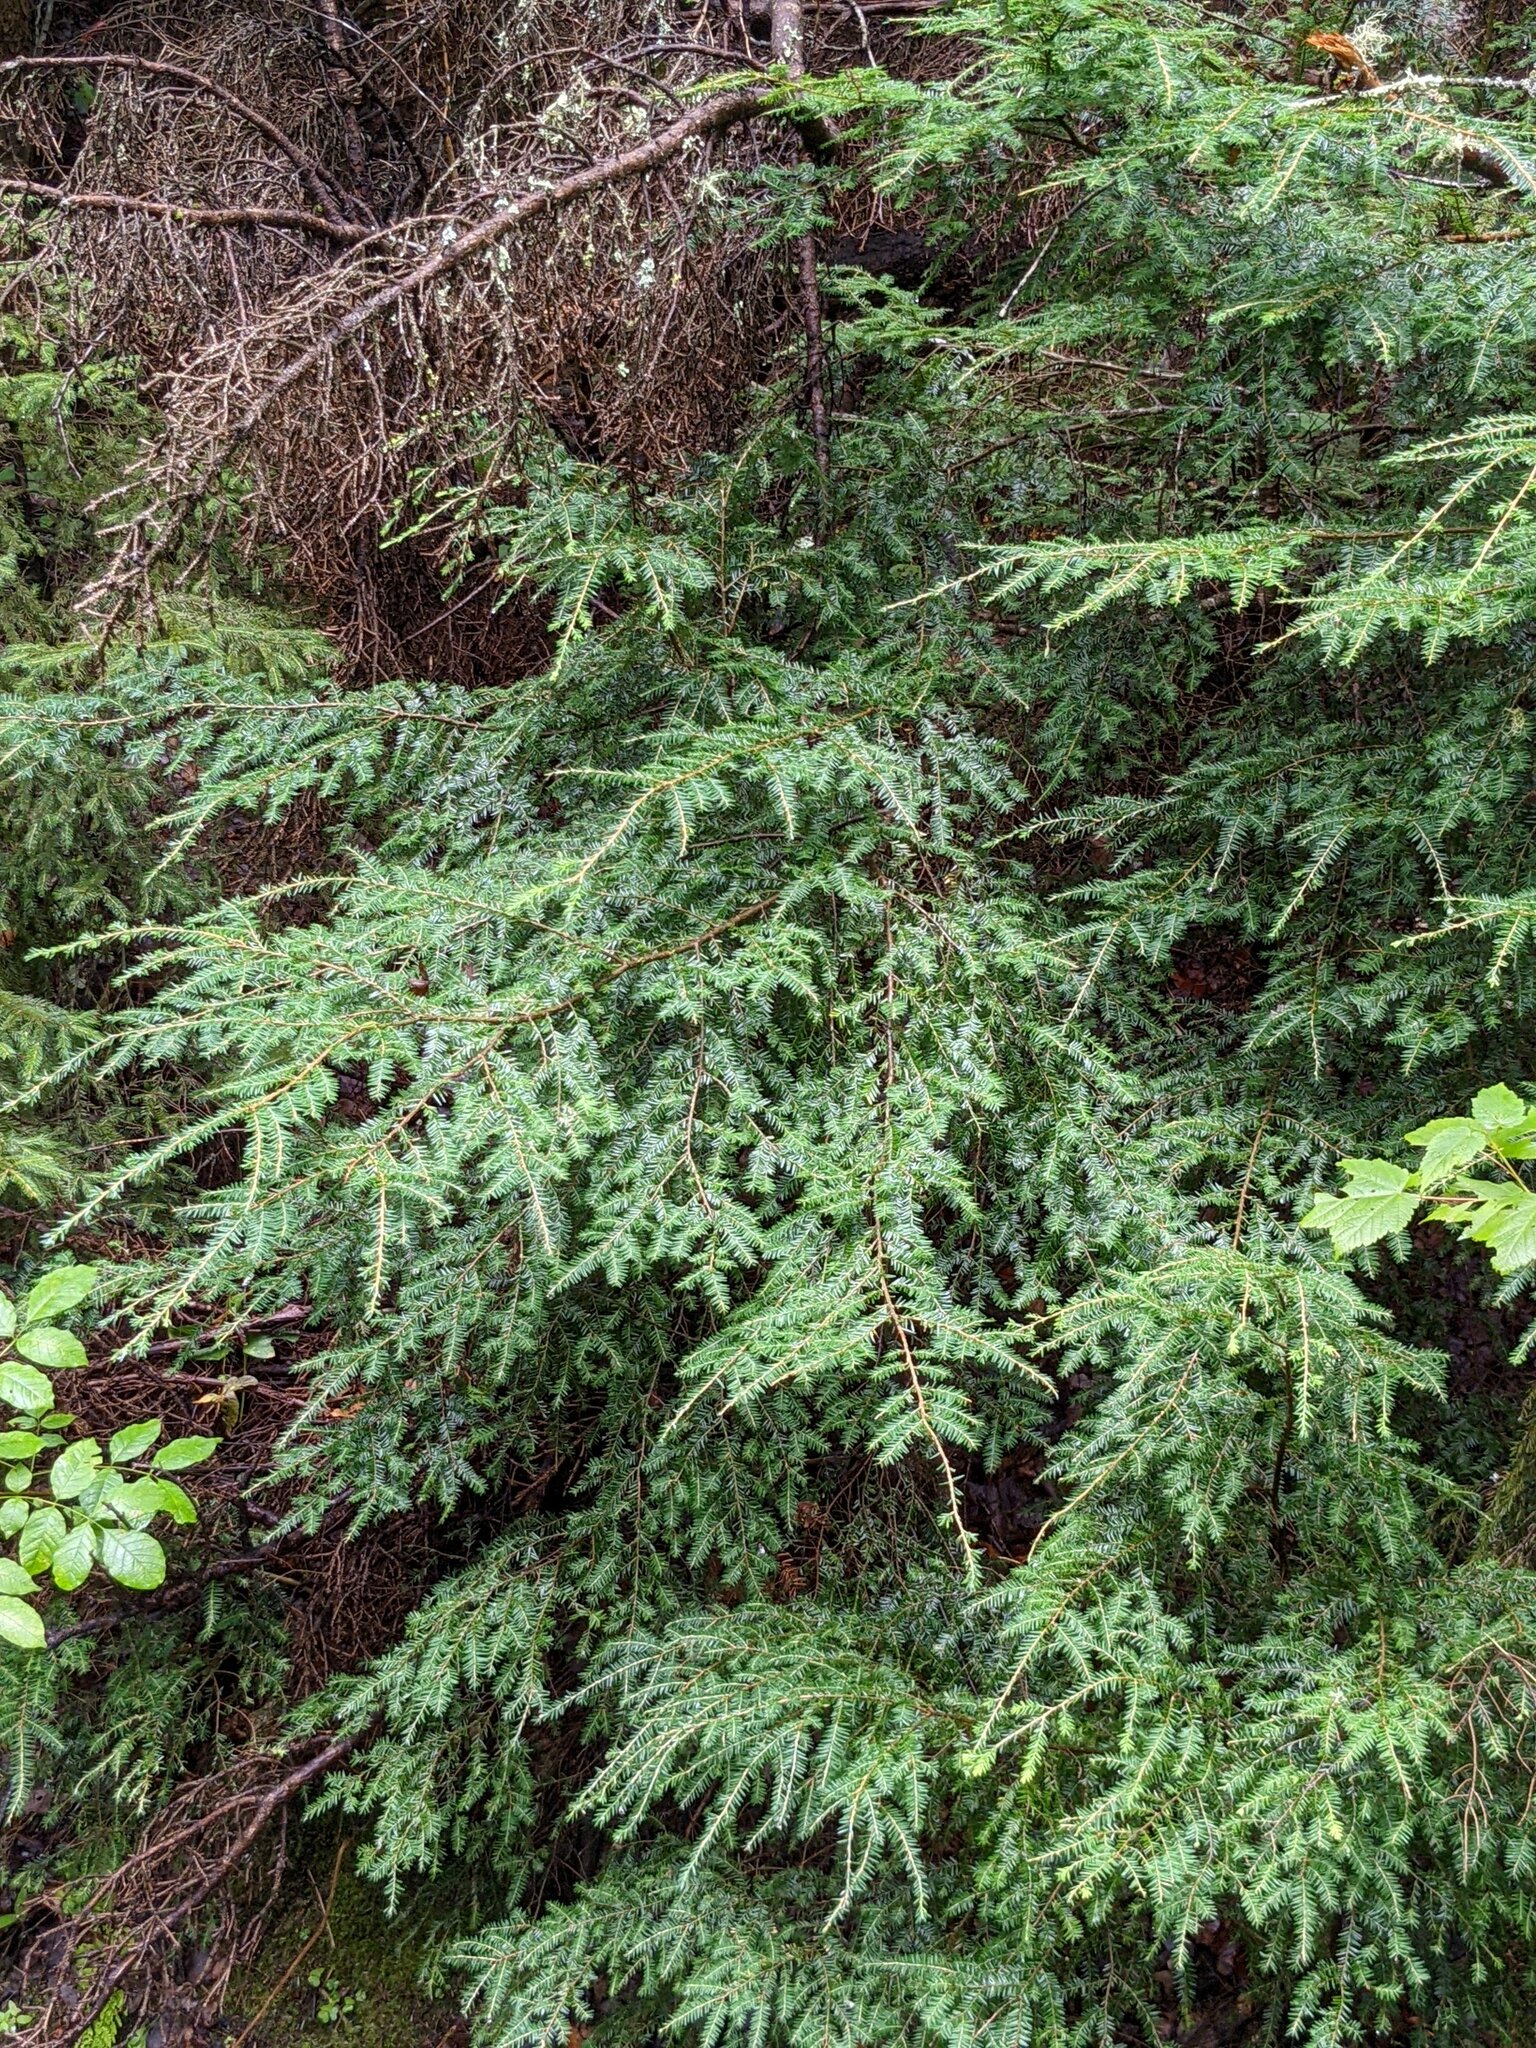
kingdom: Plantae
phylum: Tracheophyta
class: Pinopsida
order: Pinales
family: Pinaceae
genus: Tsuga
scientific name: Tsuga canadensis
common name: Eastern hemlock
